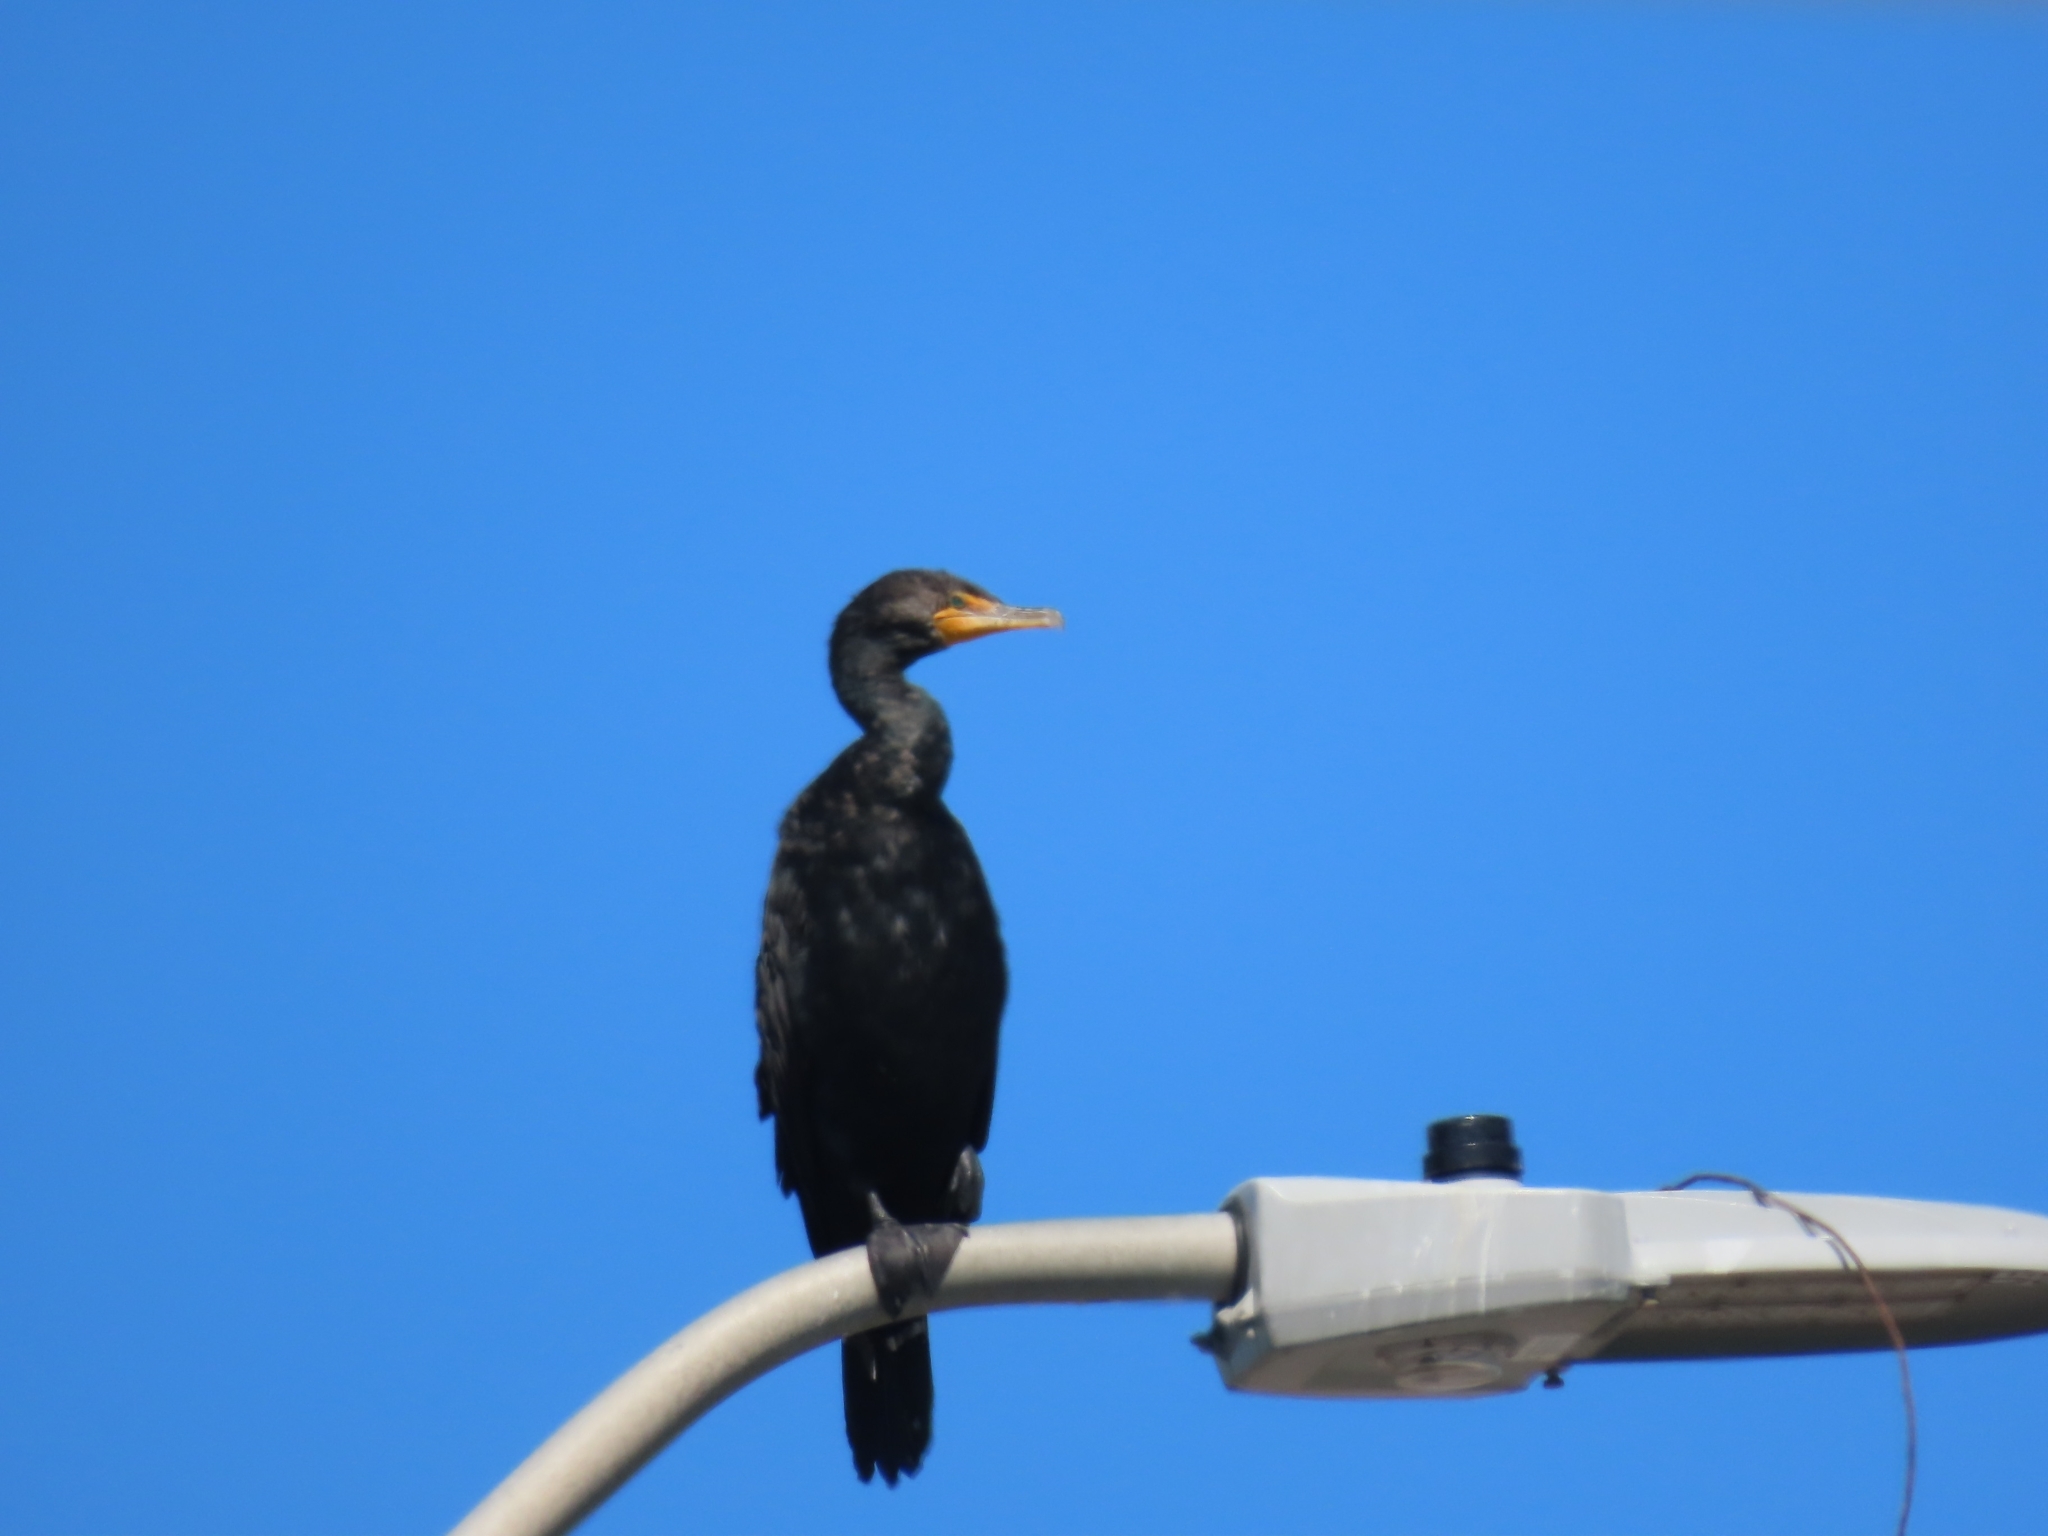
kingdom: Animalia
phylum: Chordata
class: Aves
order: Suliformes
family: Phalacrocoracidae
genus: Phalacrocorax
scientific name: Phalacrocorax auritus
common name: Double-crested cormorant
